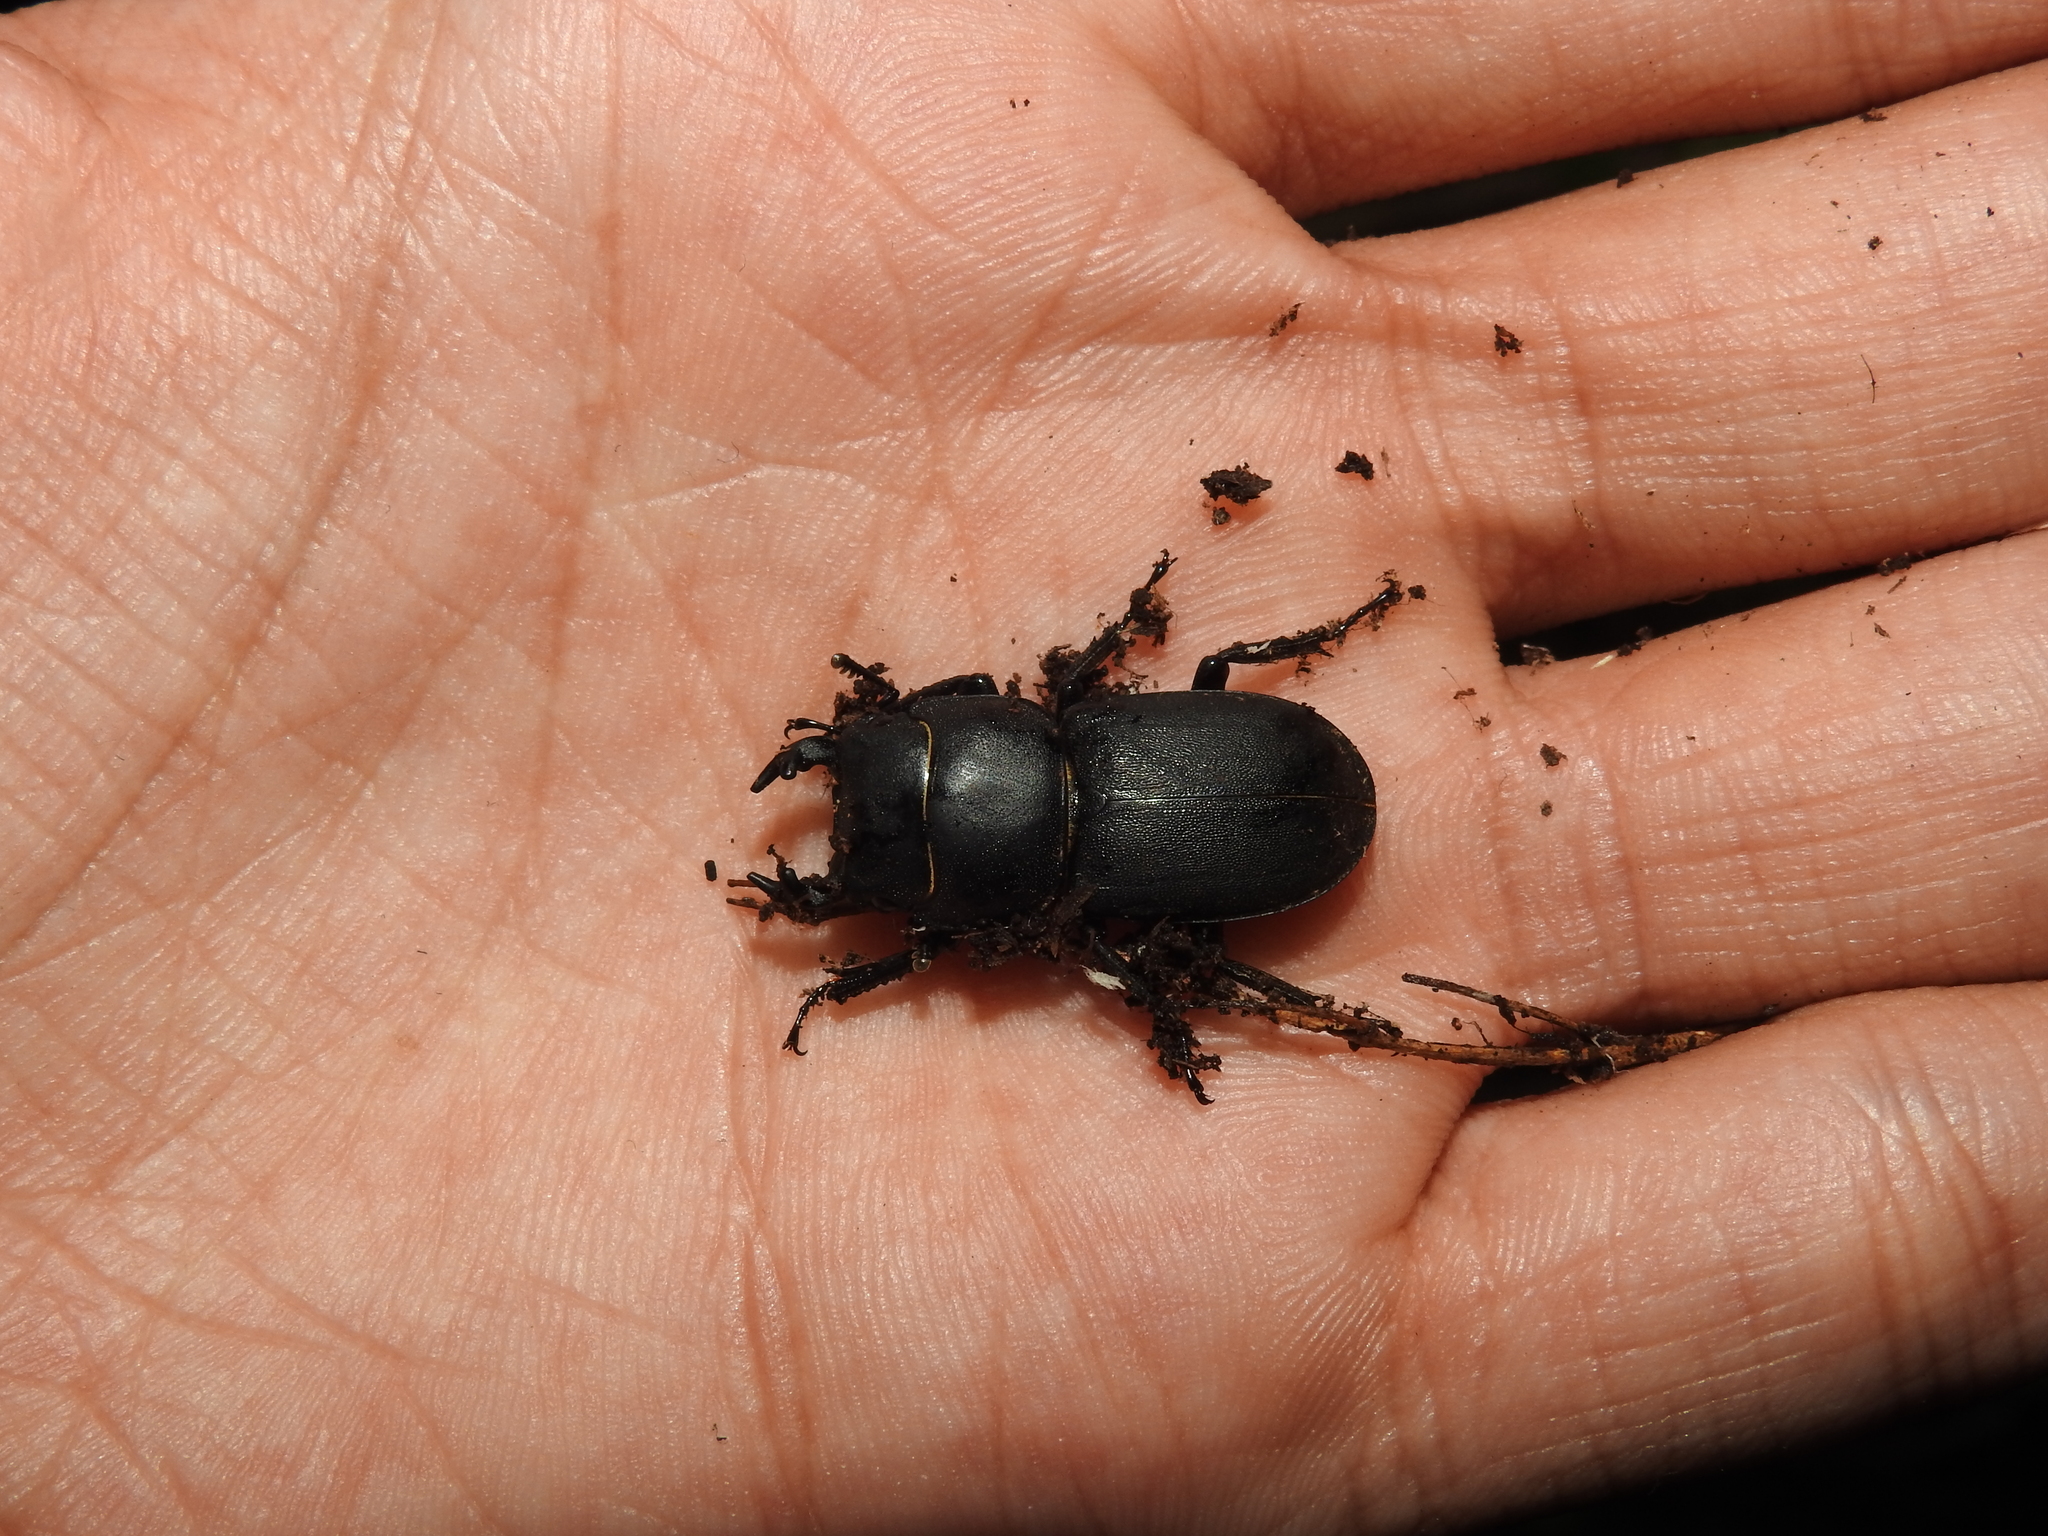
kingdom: Animalia
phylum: Arthropoda
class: Insecta
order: Coleoptera
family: Lucanidae
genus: Dorcus
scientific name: Dorcus parallelipipedus
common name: Lesser stag beetle
